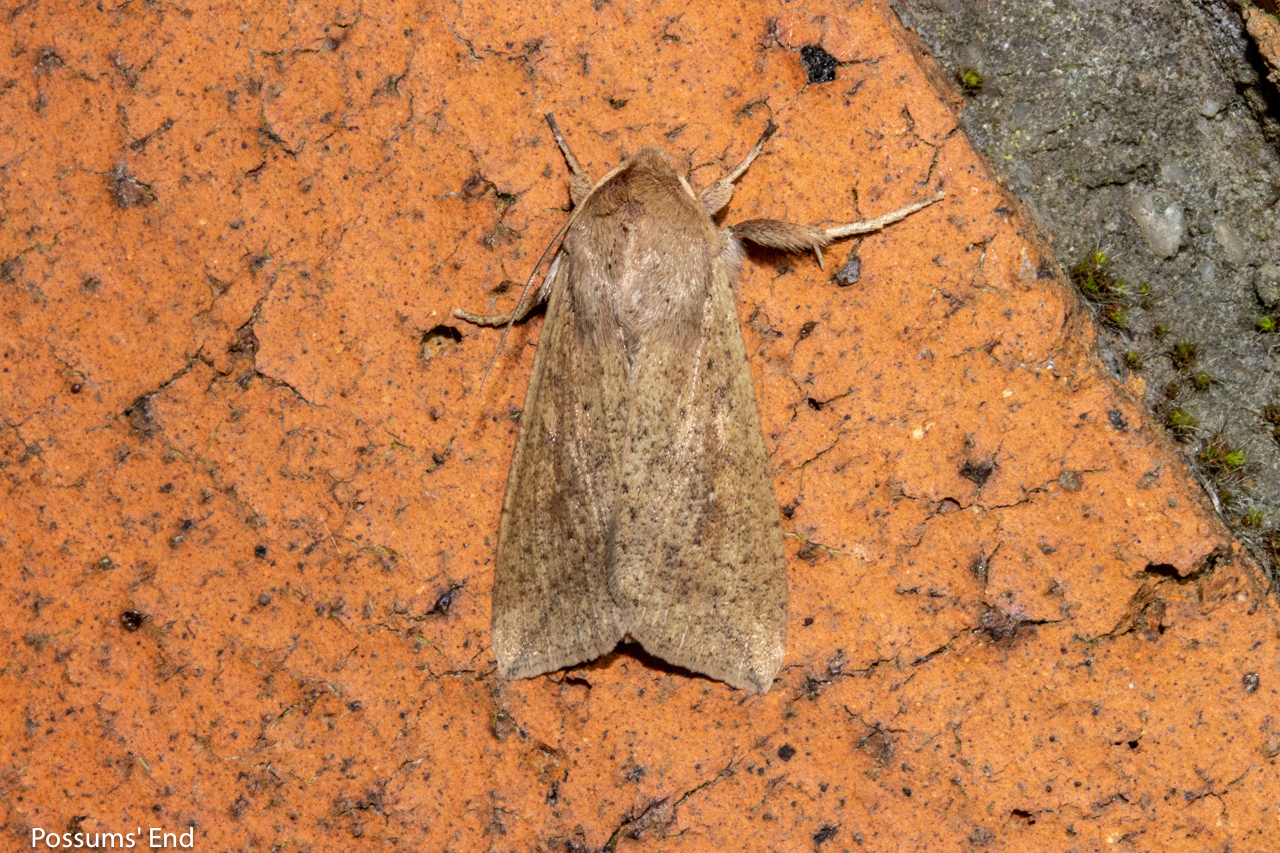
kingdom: Animalia
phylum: Arthropoda
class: Insecta
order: Lepidoptera
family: Noctuidae
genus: Mythimna
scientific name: Mythimna separata
